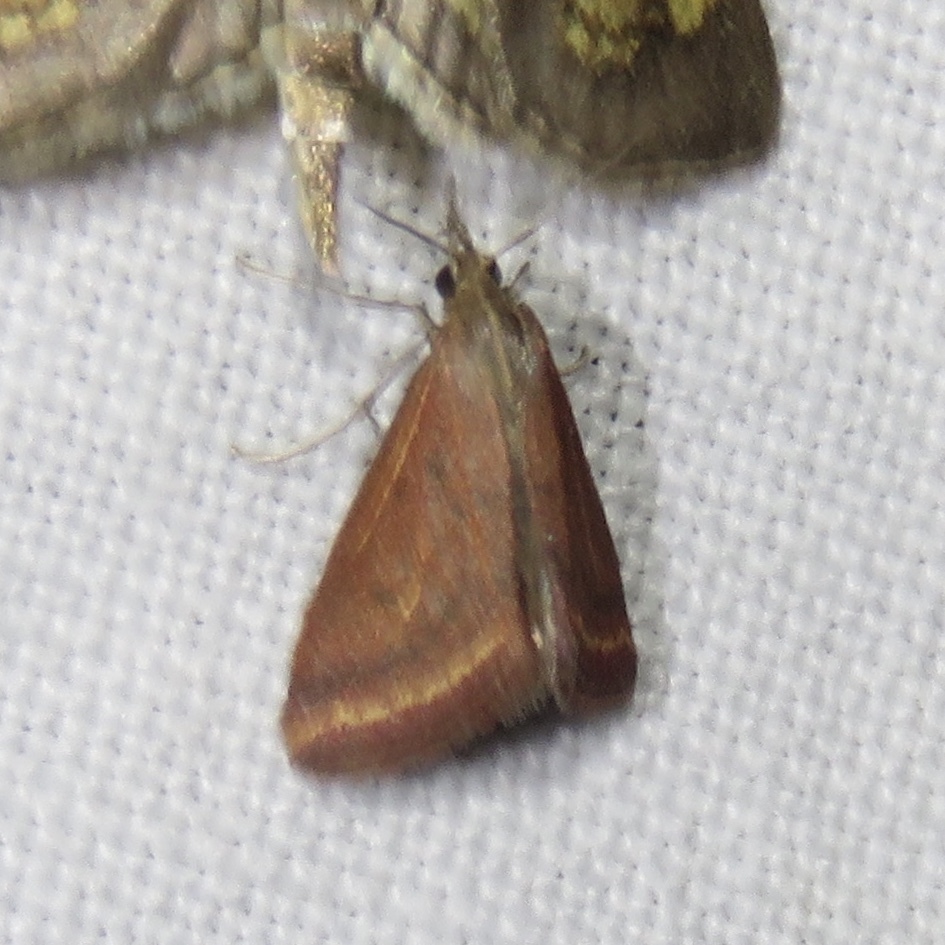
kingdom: Animalia
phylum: Arthropoda
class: Insecta
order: Lepidoptera
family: Crambidae
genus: Microtheoris
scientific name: Microtheoris ophionalis
